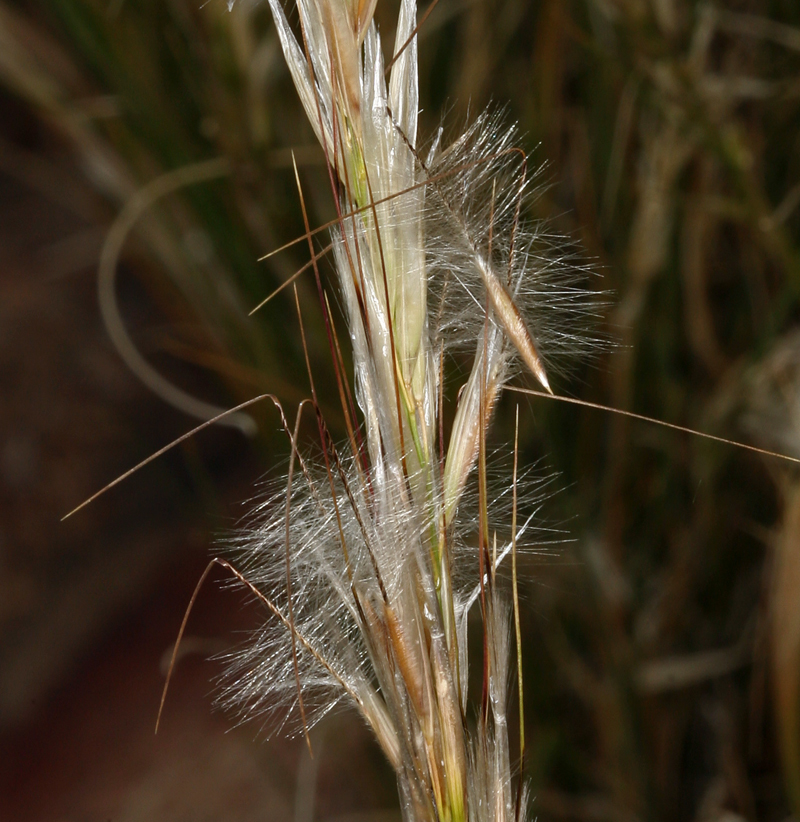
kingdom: Plantae
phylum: Tracheophyta
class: Liliopsida
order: Poales
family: Poaceae
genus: Pappostipa
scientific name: Pappostipa speciosa
